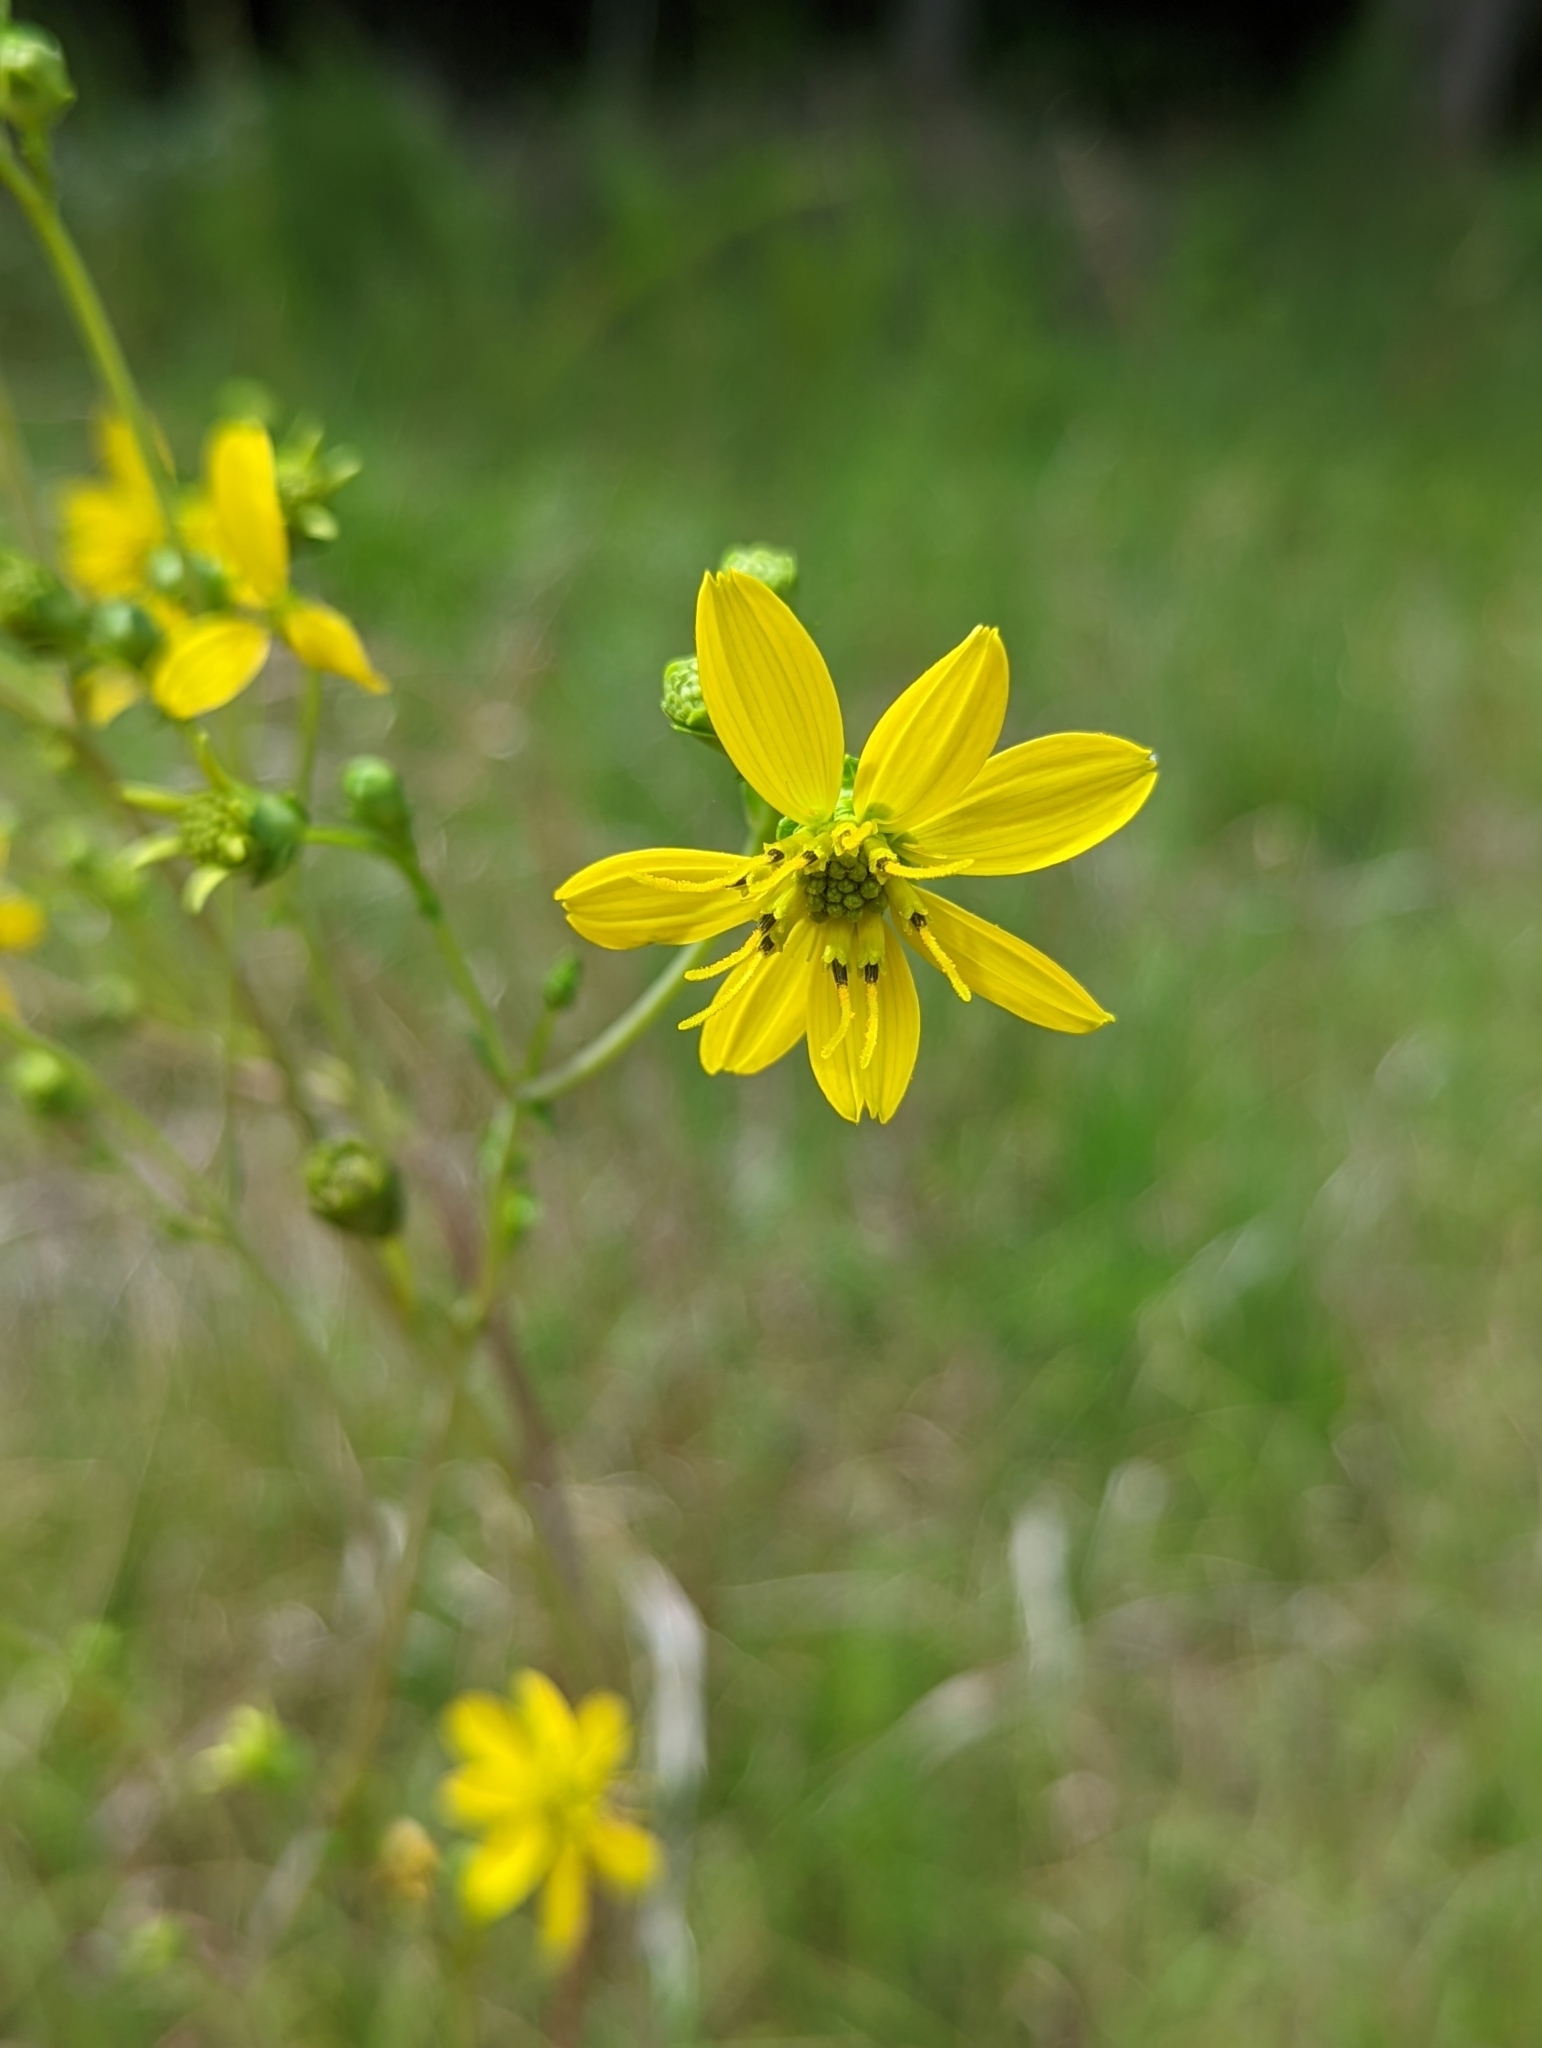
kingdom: Plantae
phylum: Tracheophyta
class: Magnoliopsida
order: Asterales
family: Asteraceae
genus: Silphium
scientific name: Silphium compositum
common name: Lesser basal-leaf rosinweed
